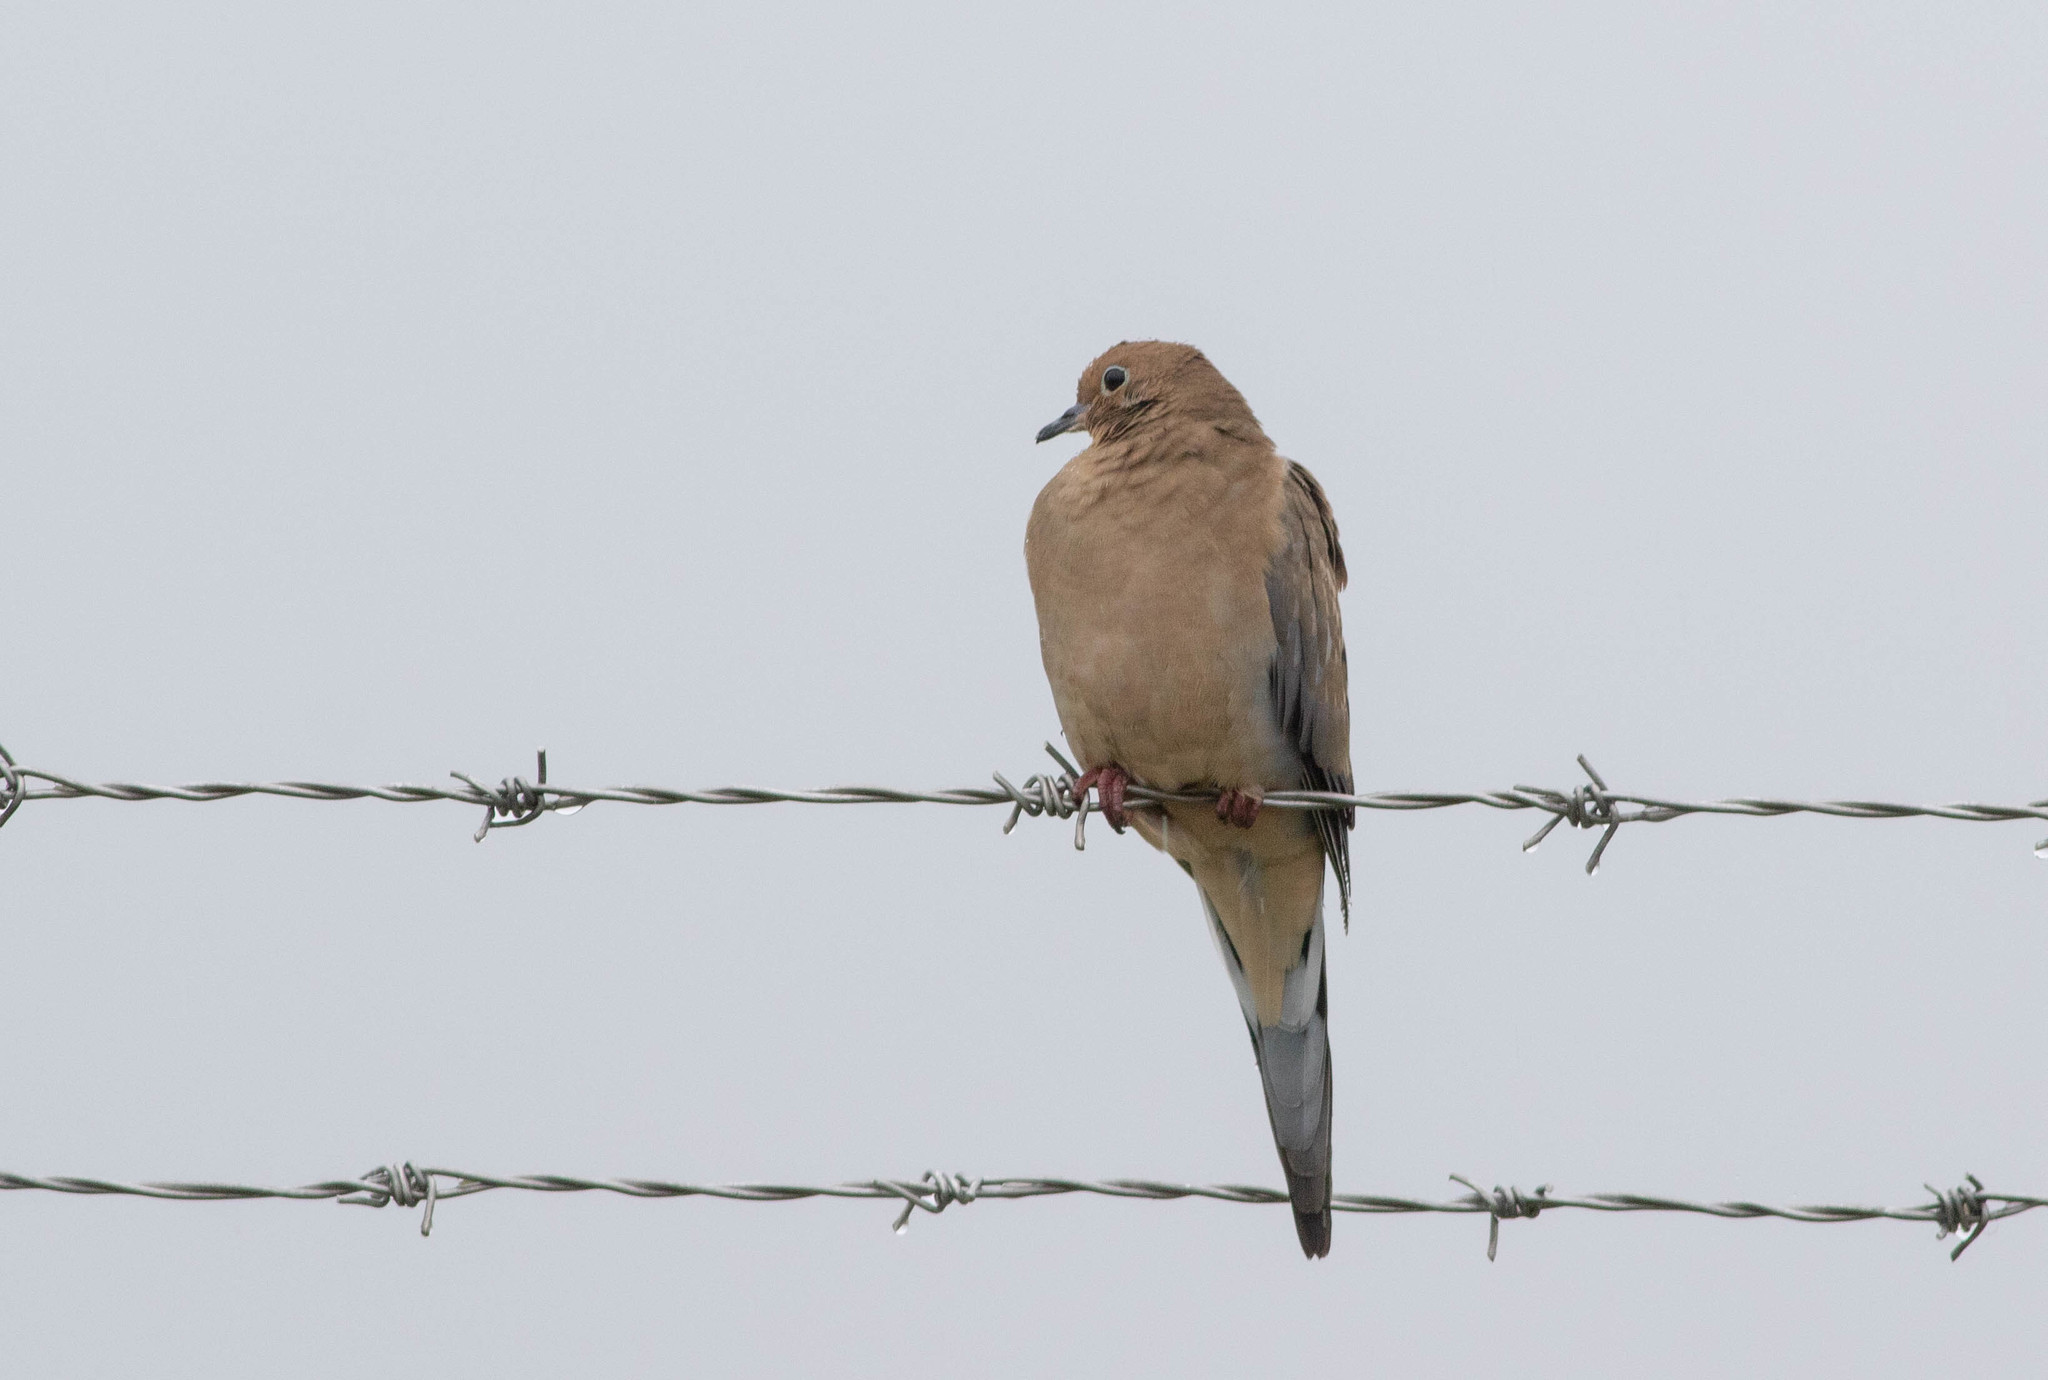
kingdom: Animalia
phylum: Chordata
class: Aves
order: Columbiformes
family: Columbidae
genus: Zenaida
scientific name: Zenaida macroura
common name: Mourning dove
